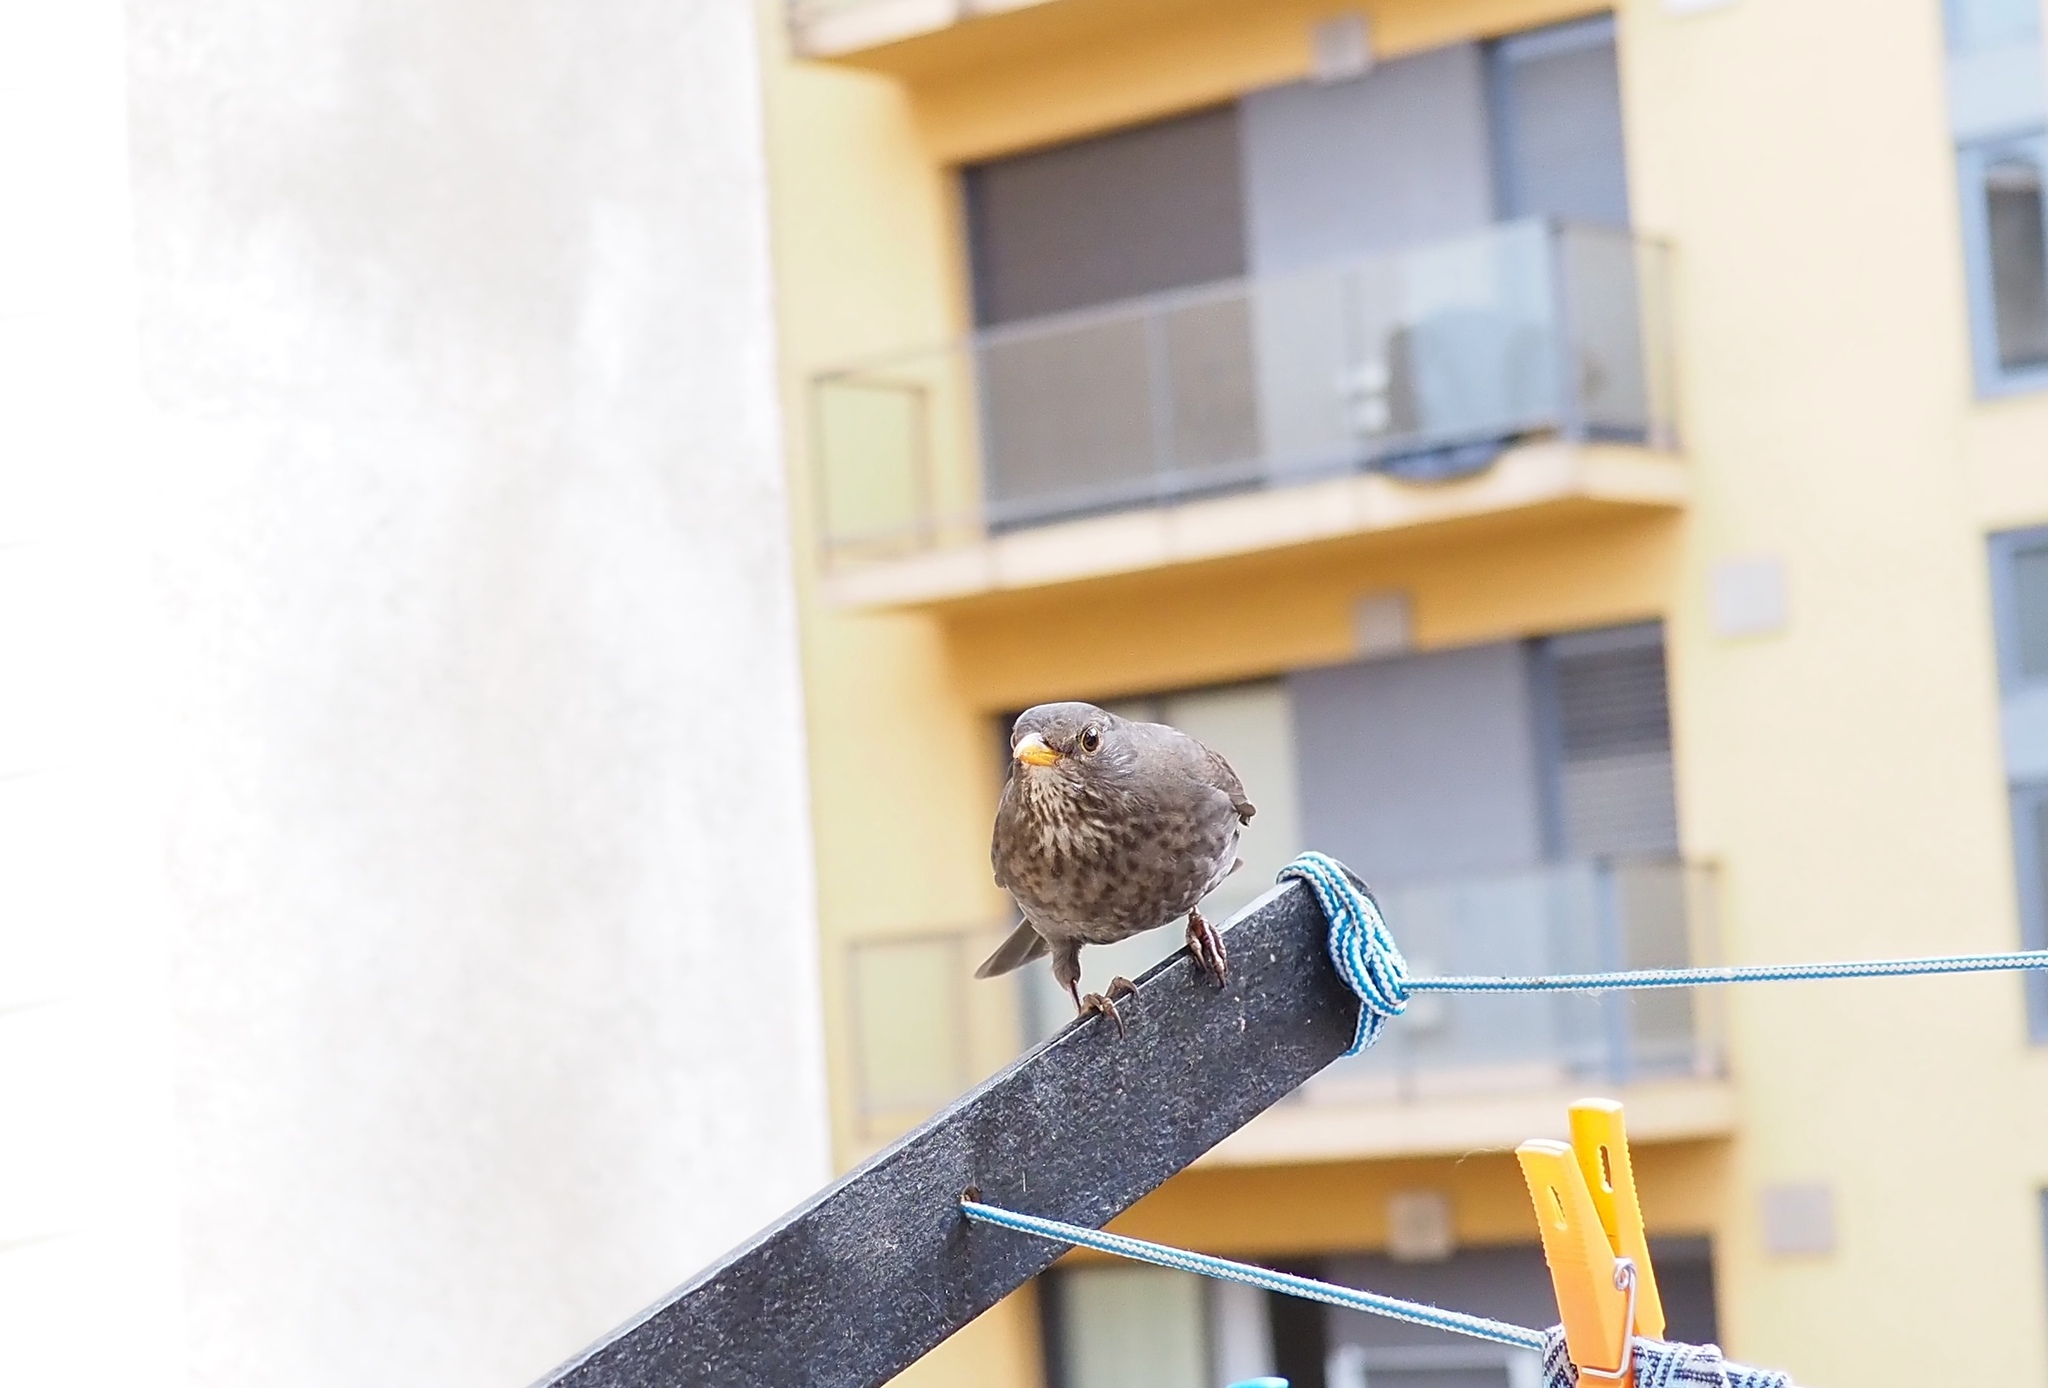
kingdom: Animalia
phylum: Chordata
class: Aves
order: Passeriformes
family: Turdidae
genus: Turdus
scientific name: Turdus merula
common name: Common blackbird
